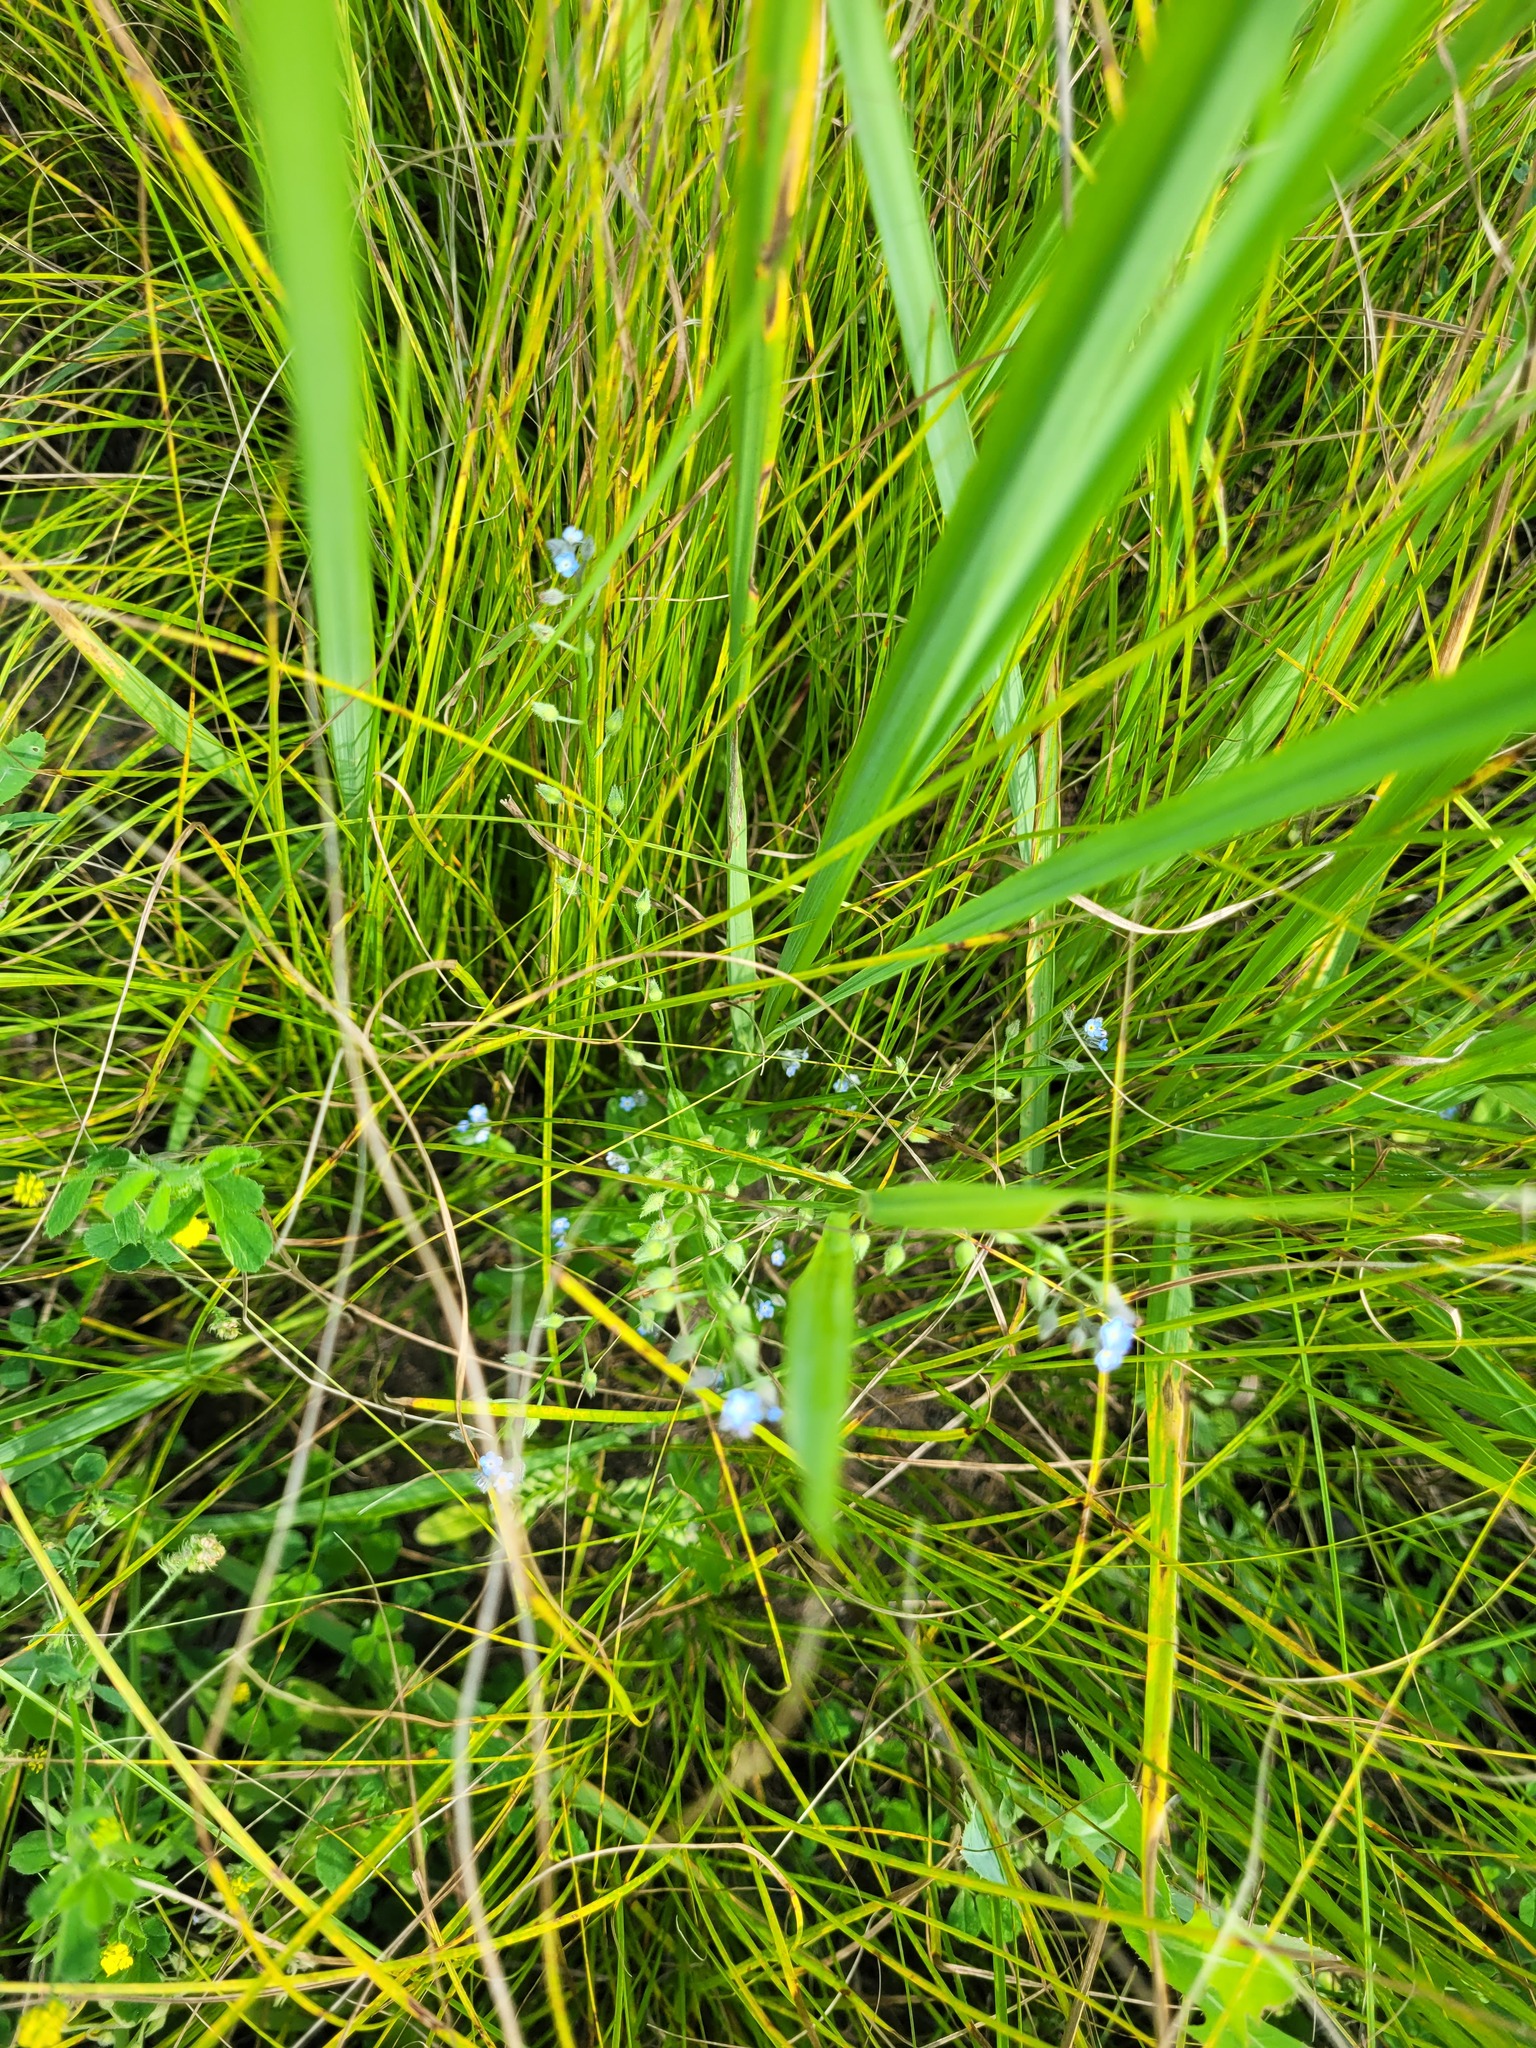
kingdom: Plantae
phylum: Tracheophyta
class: Magnoliopsida
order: Boraginales
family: Boraginaceae
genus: Myosotis
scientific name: Myosotis arvensis
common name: Field forget-me-not
